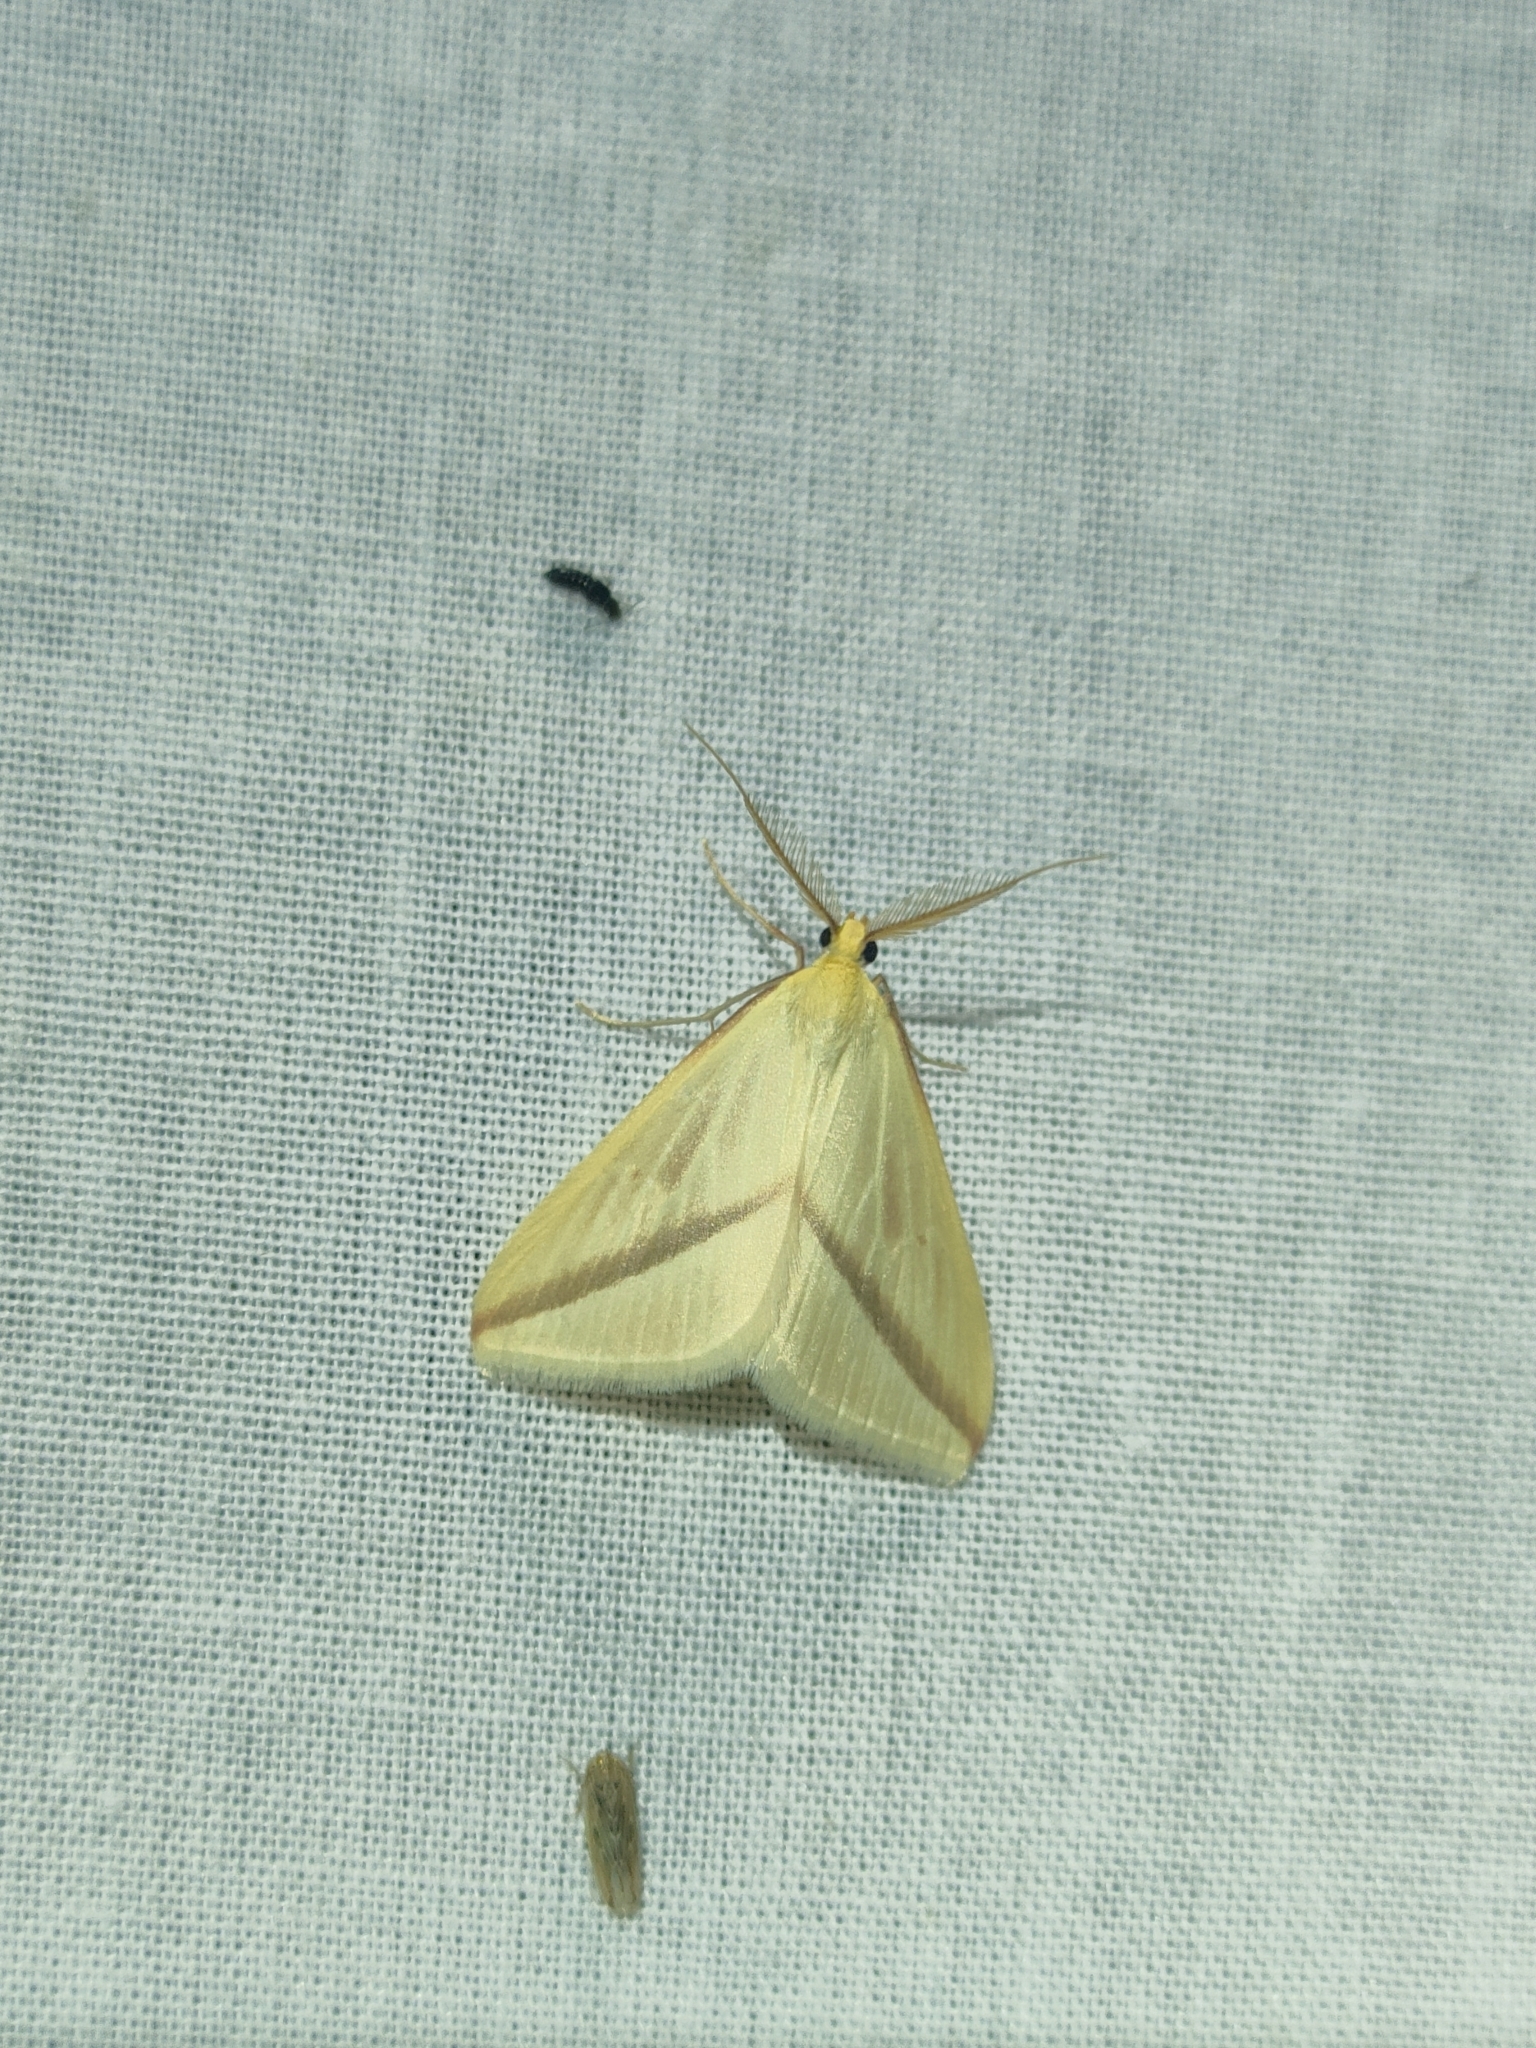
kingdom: Animalia
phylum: Arthropoda
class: Insecta
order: Lepidoptera
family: Geometridae
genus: Rhodometra
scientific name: Rhodometra sacraria
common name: Vestal
